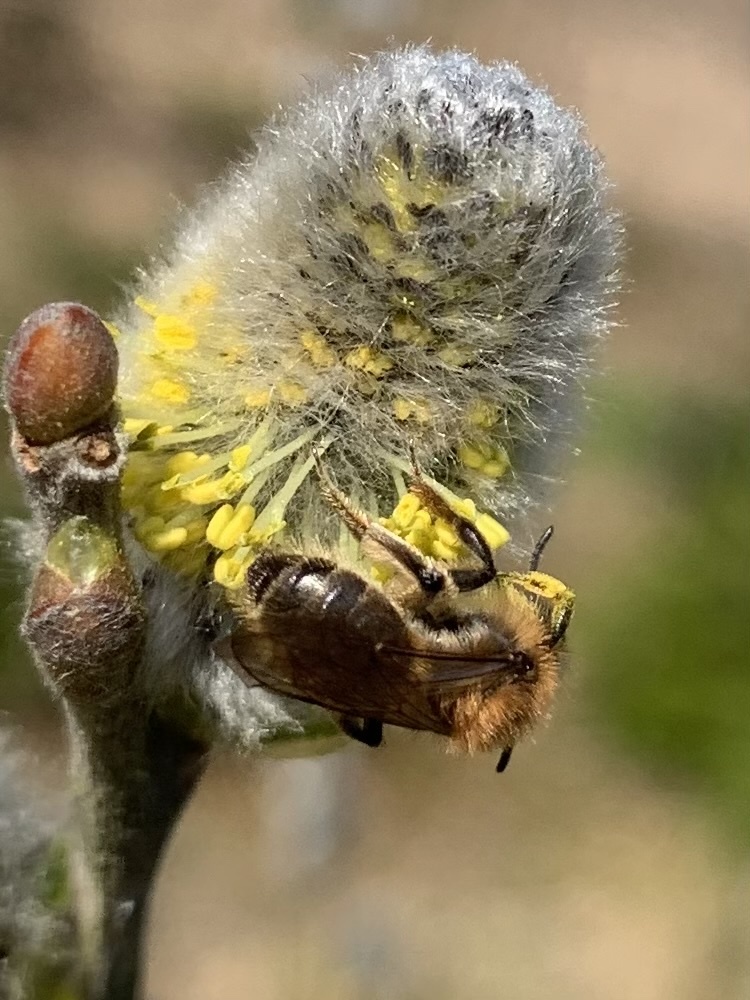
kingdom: Animalia
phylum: Arthropoda
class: Insecta
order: Hymenoptera
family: Andrenidae
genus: Andrena
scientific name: Andrena praecox
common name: Small sallow mining bee
